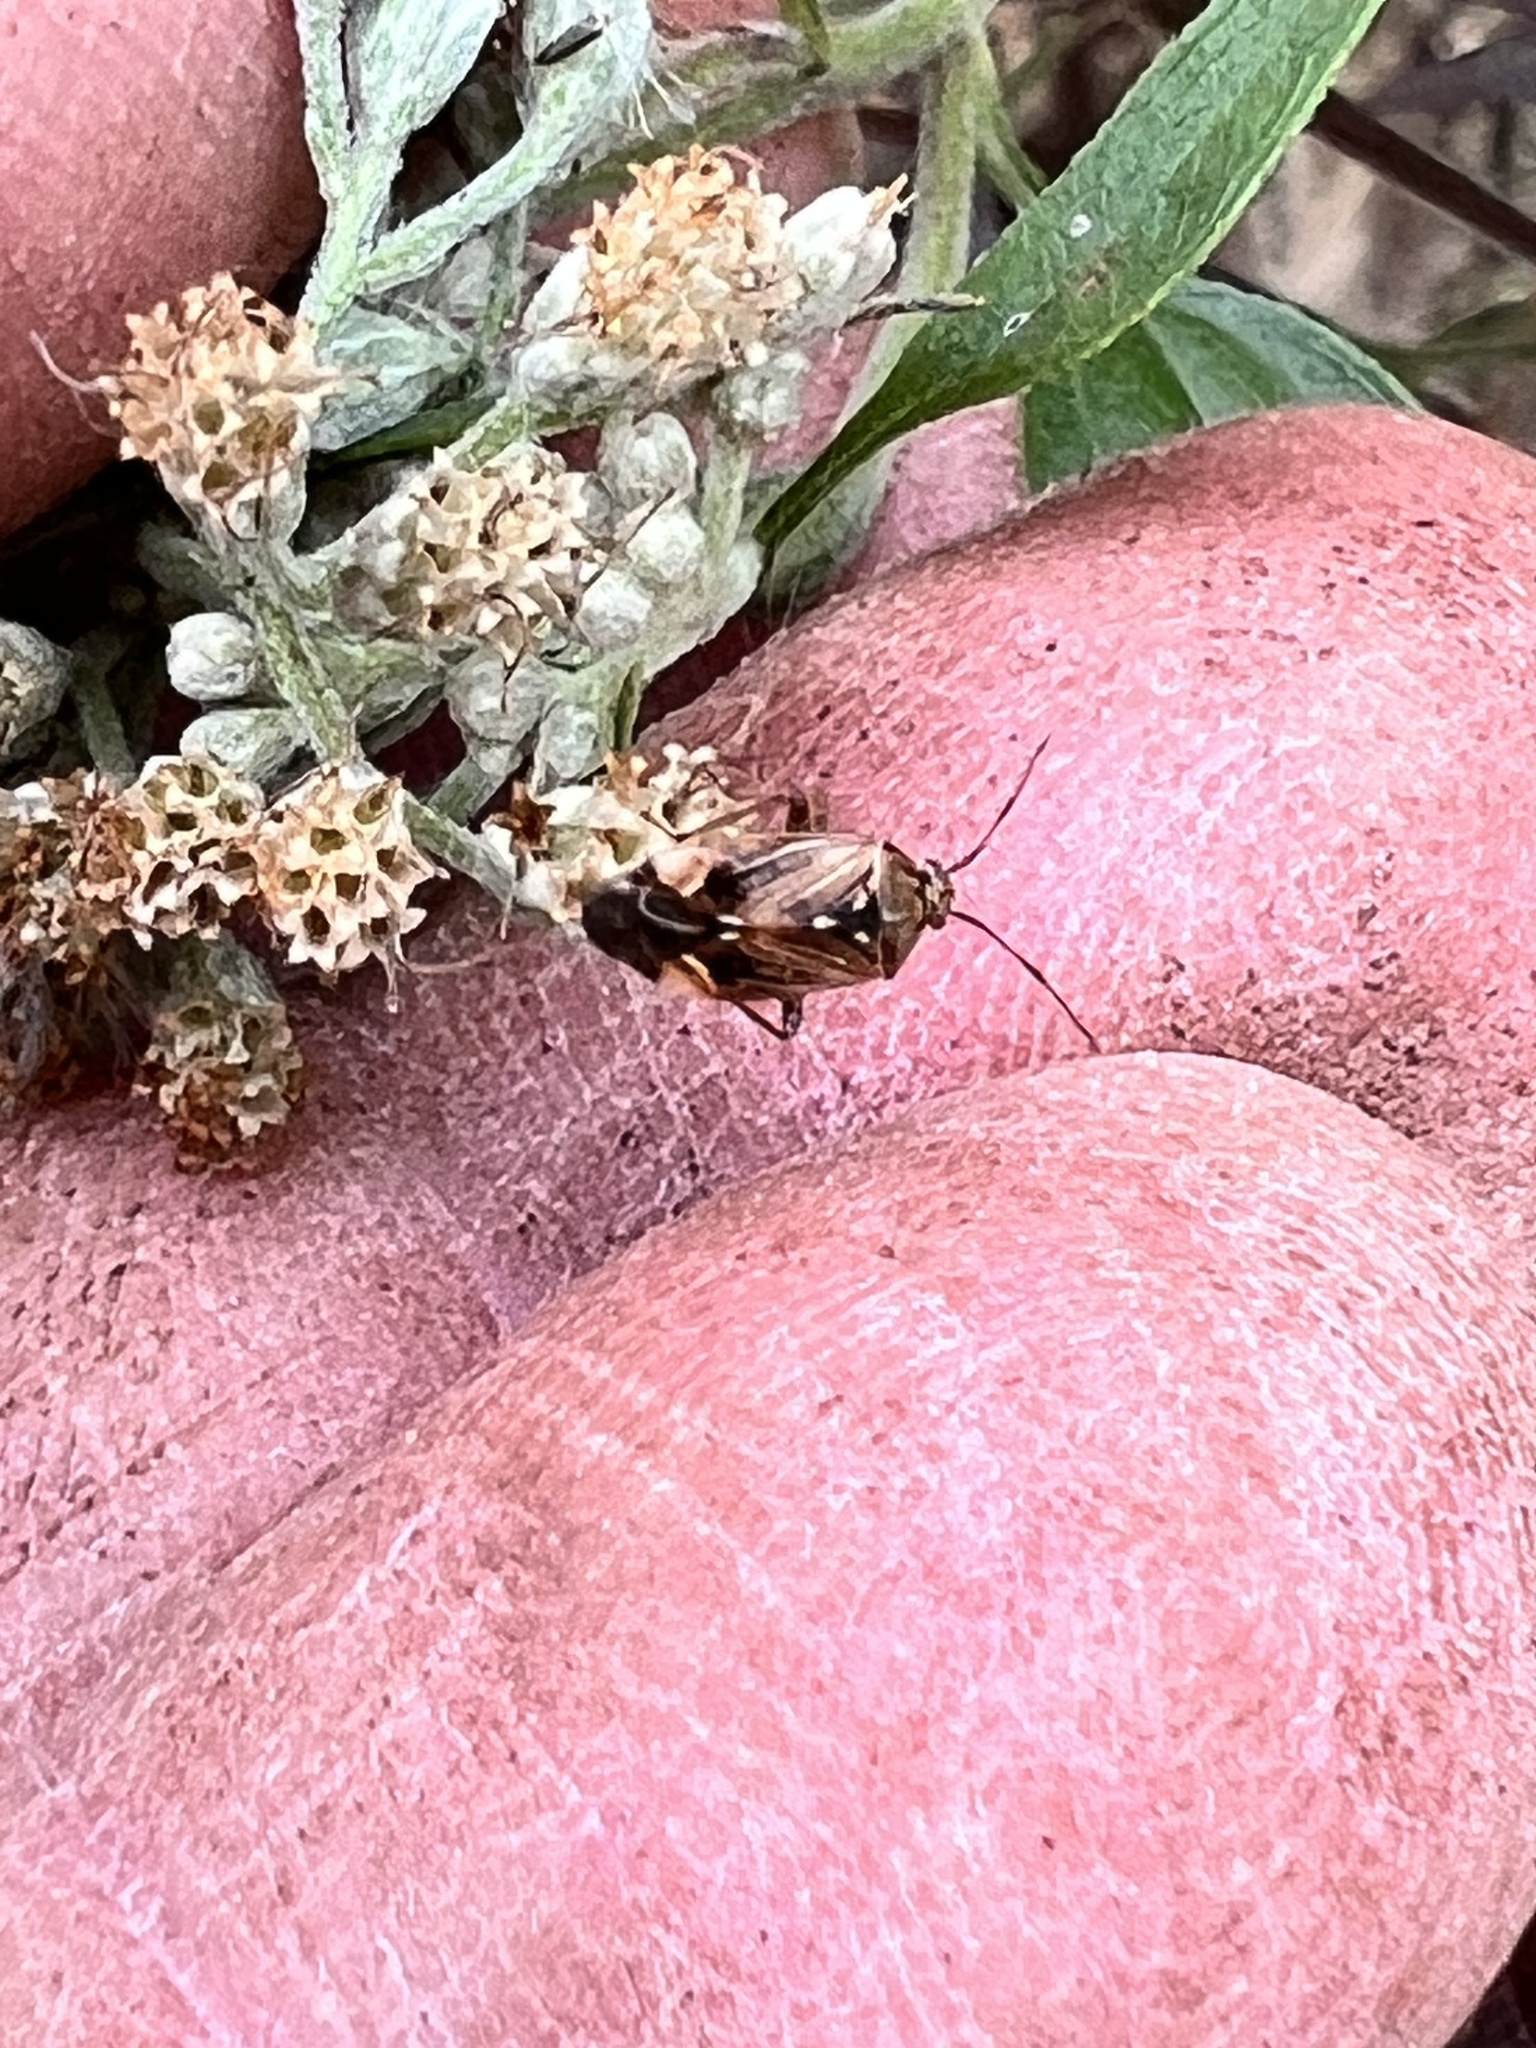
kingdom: Animalia
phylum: Arthropoda
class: Insecta
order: Hemiptera
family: Miridae
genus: Lygus
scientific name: Lygus lineolaris
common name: North american tarnished plant bug
